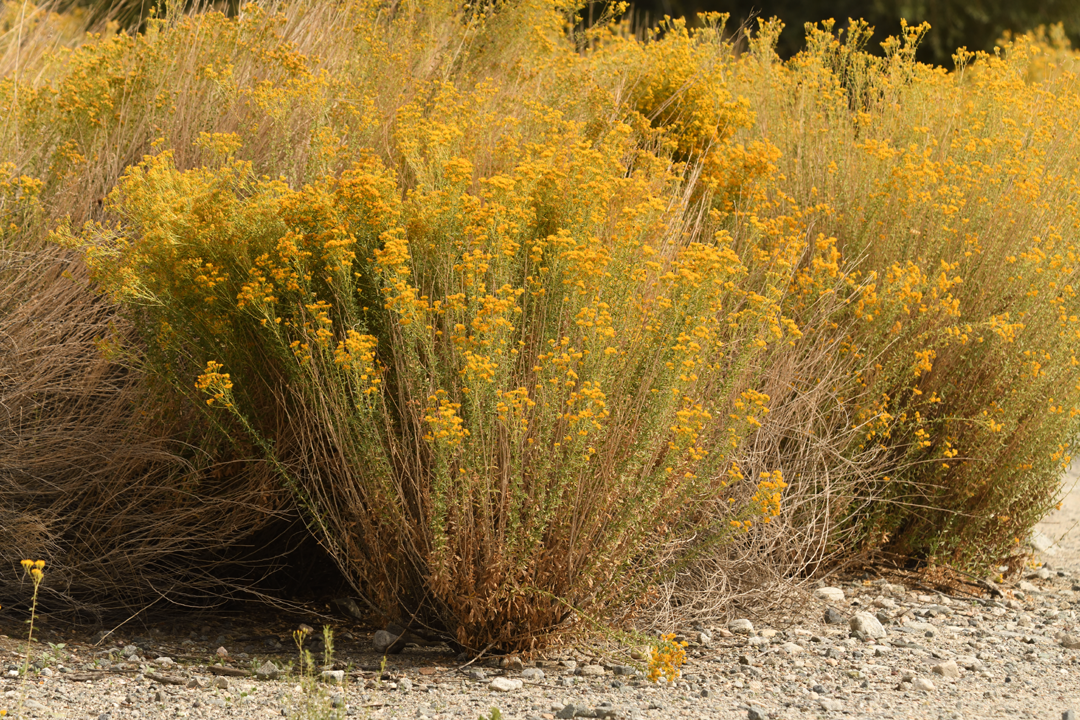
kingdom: Plantae
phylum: Tracheophyta
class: Magnoliopsida
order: Asterales
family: Asteraceae
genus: Isocoma
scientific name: Isocoma acradenia
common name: Alkali jimmyweed
